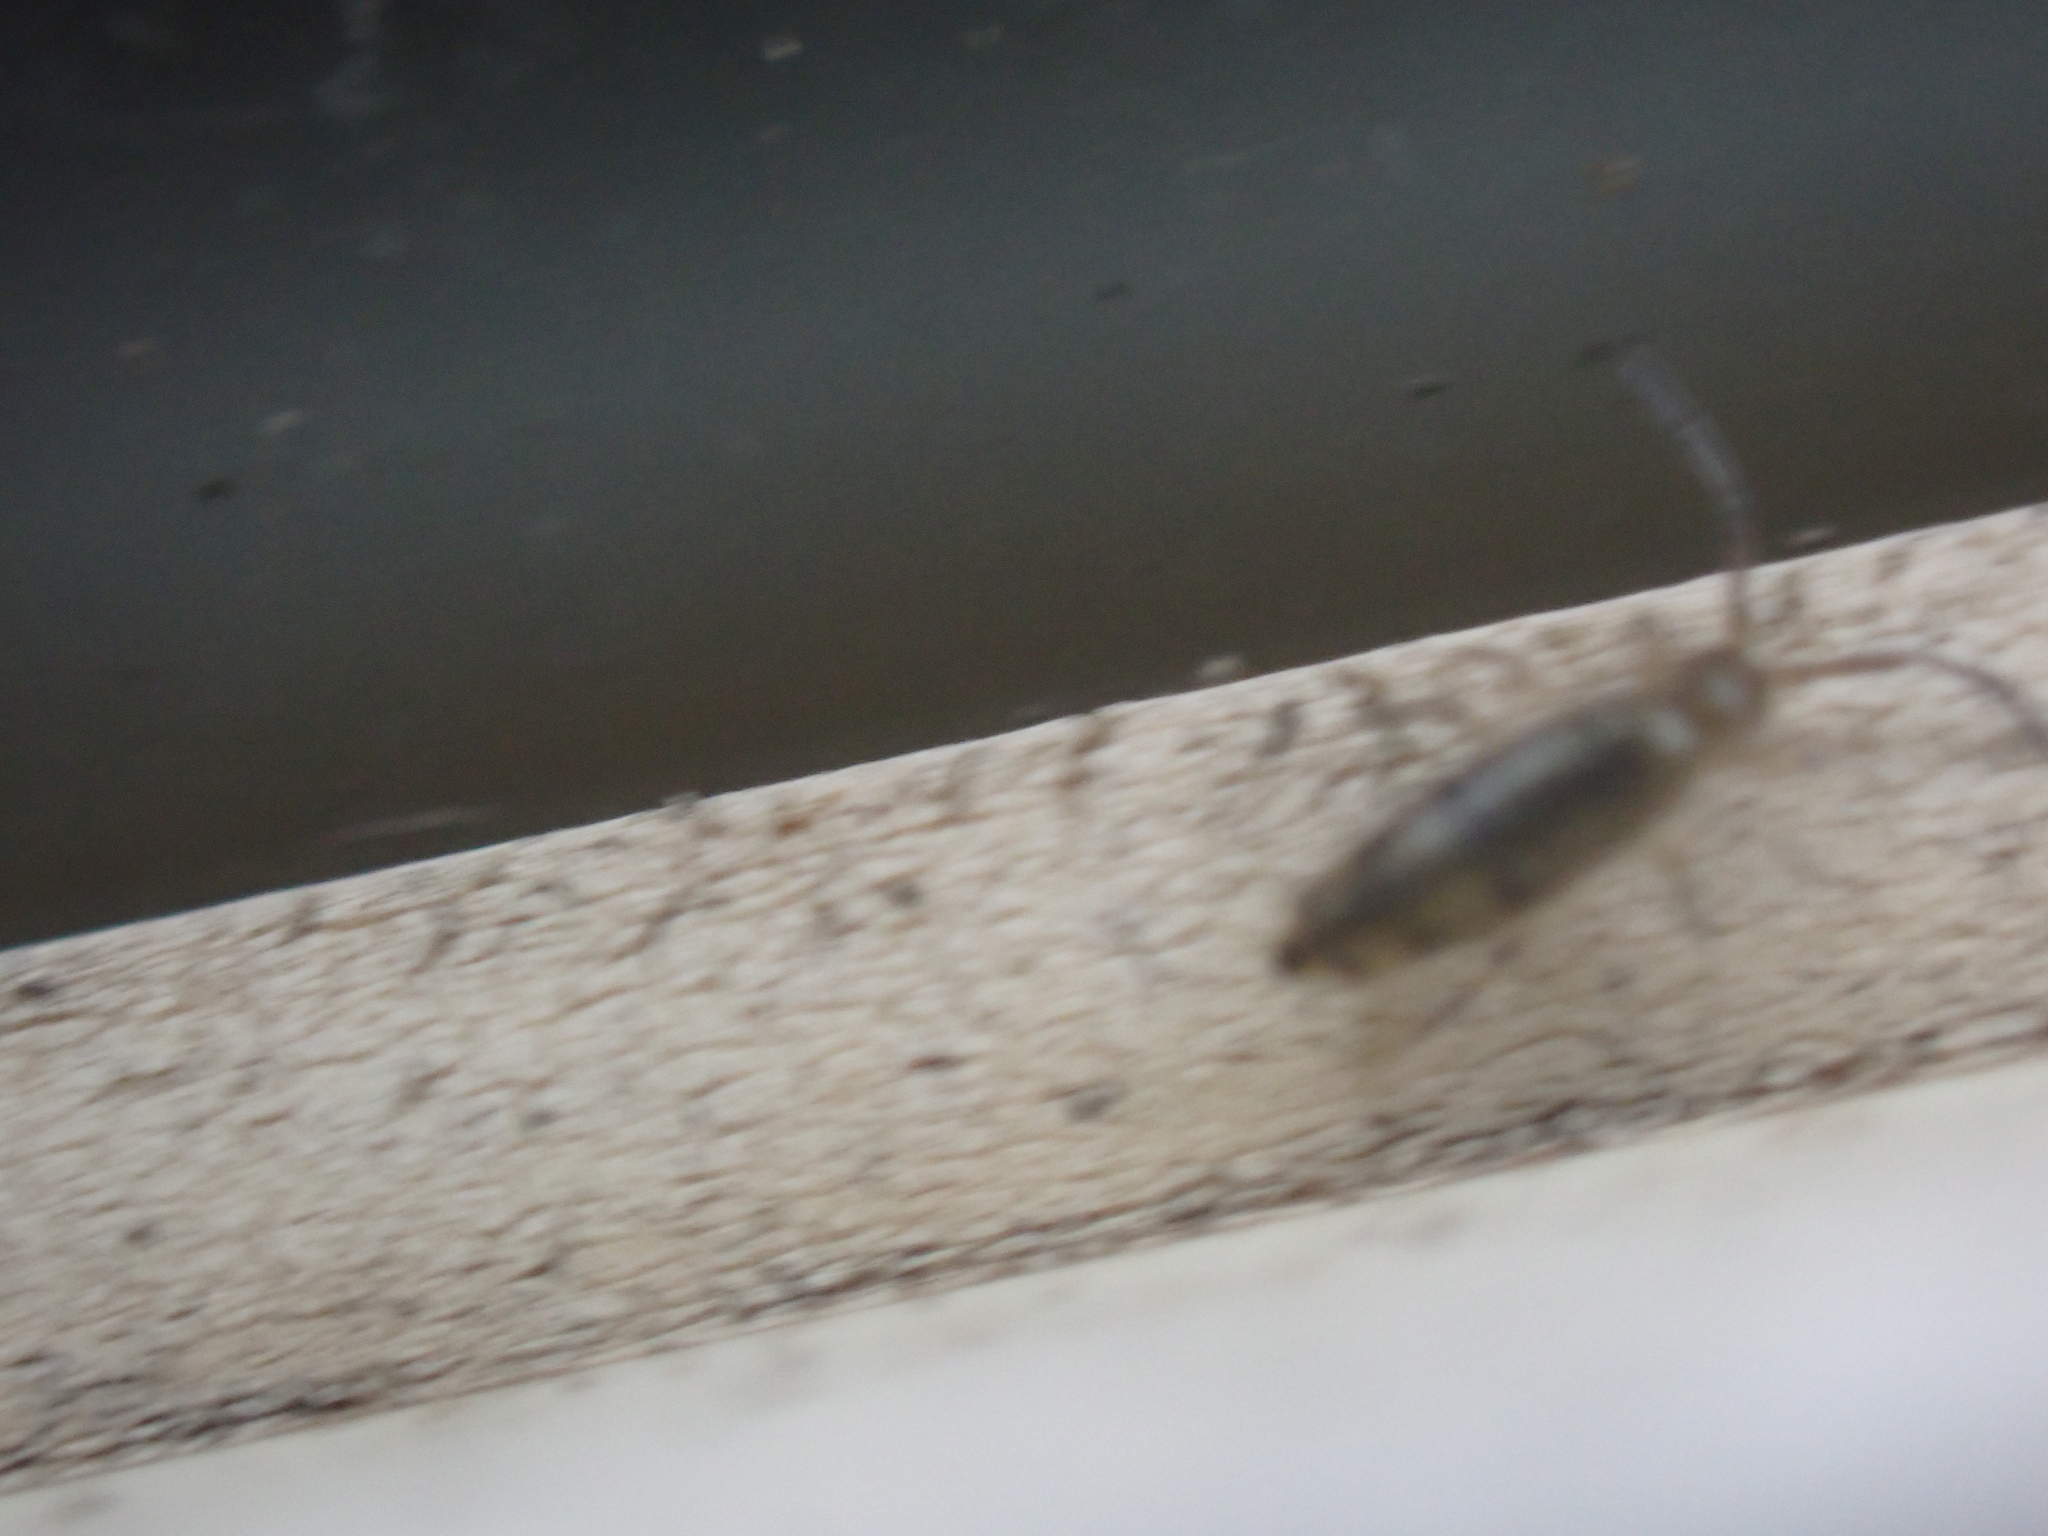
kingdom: Animalia
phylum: Arthropoda
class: Collembola
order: Entomobryomorpha
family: Entomobryidae
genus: Willowsia
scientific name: Willowsia nigromaculata
